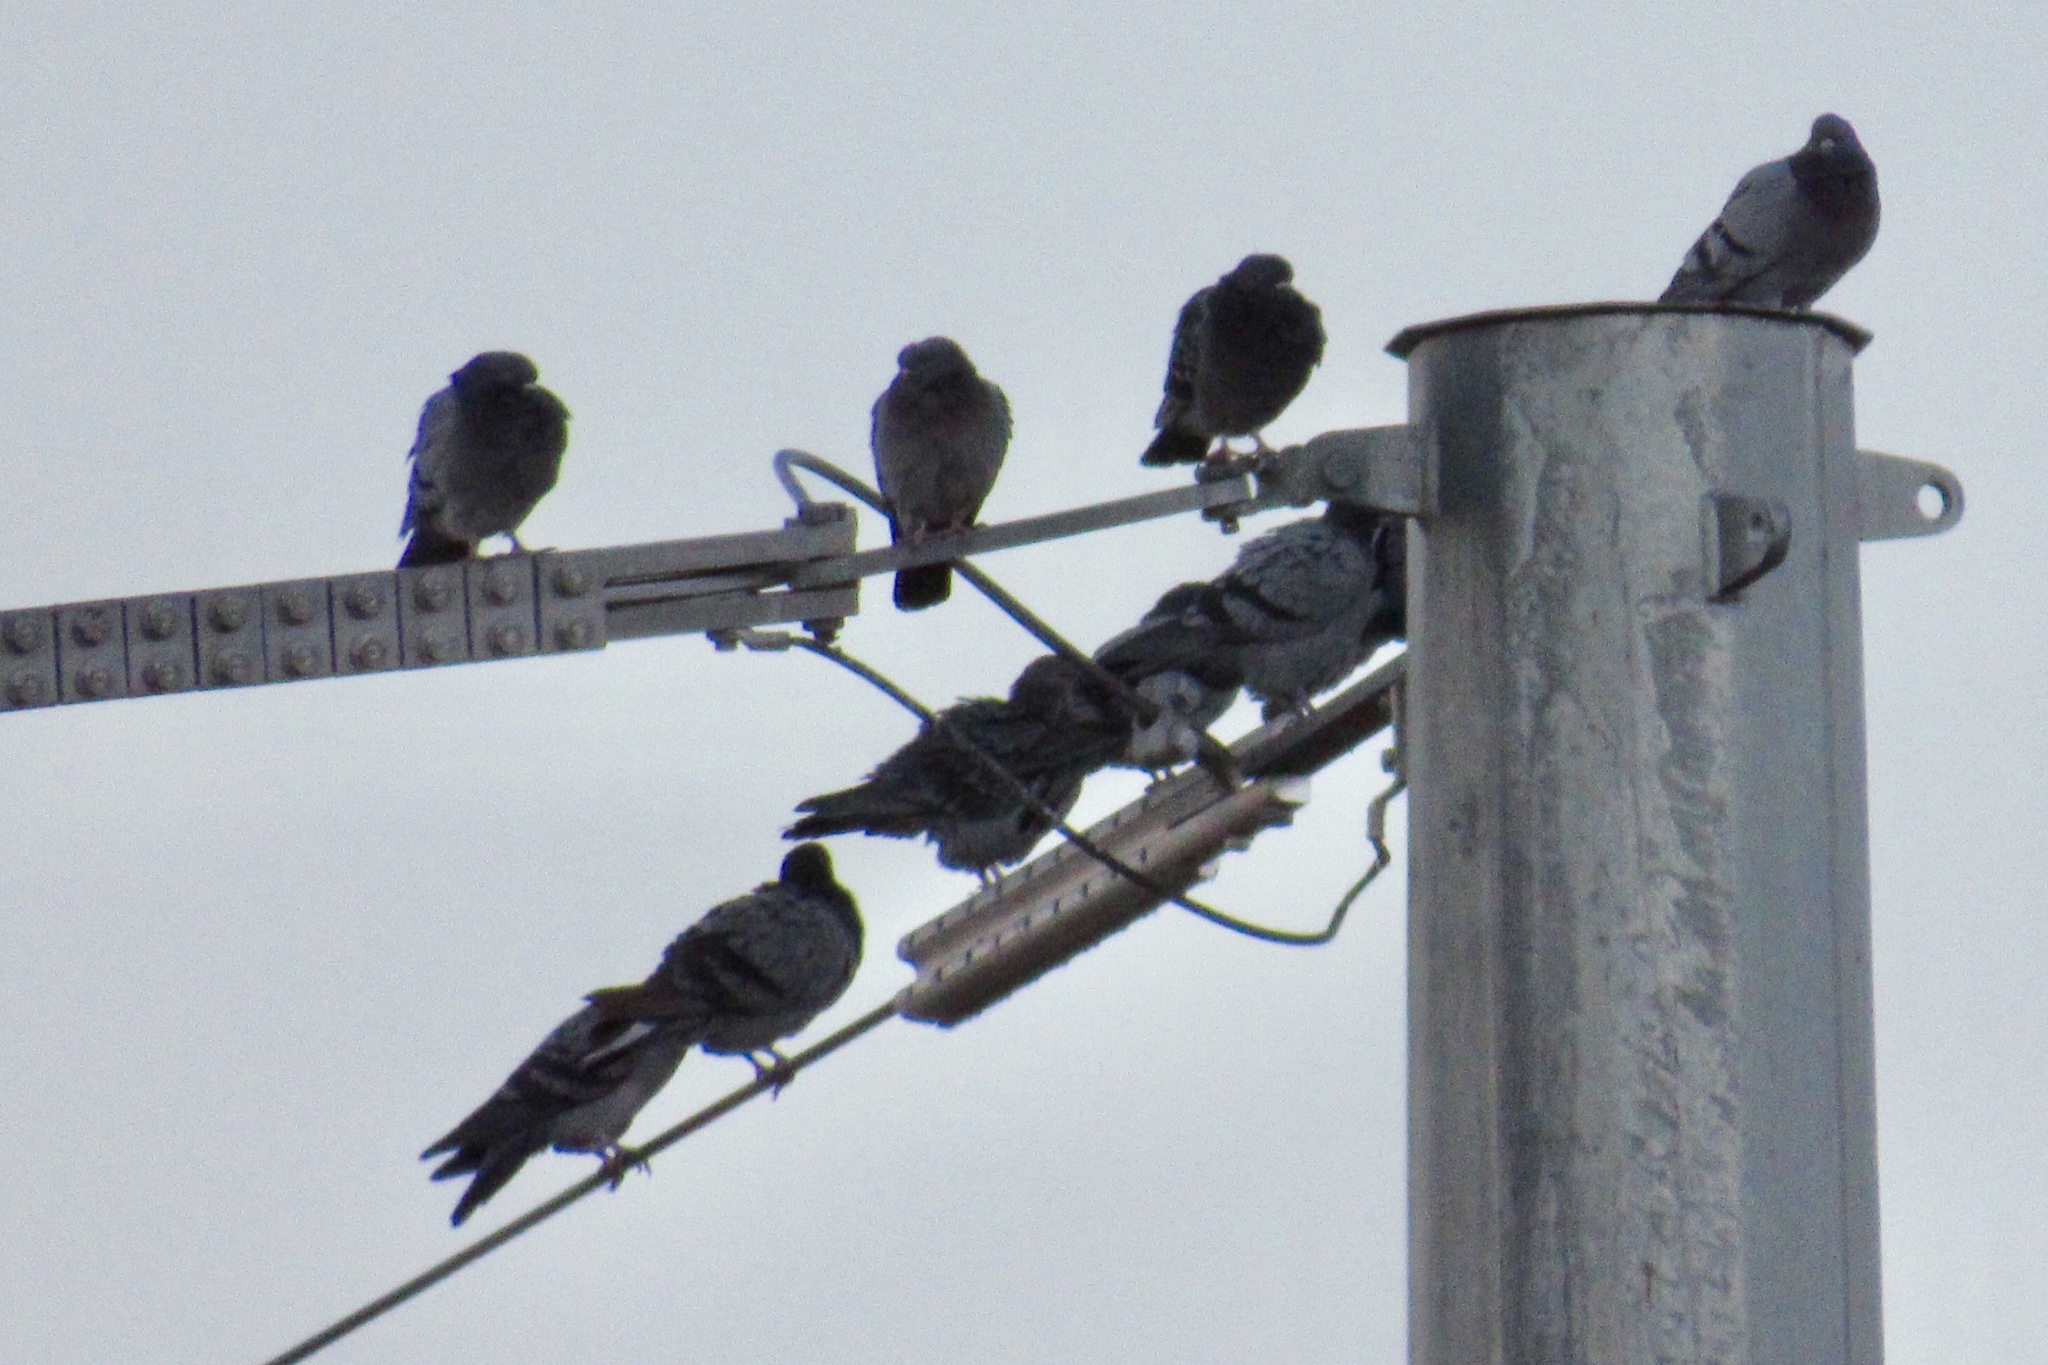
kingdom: Animalia
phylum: Chordata
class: Aves
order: Columbiformes
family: Columbidae
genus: Columba
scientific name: Columba livia
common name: Rock pigeon
